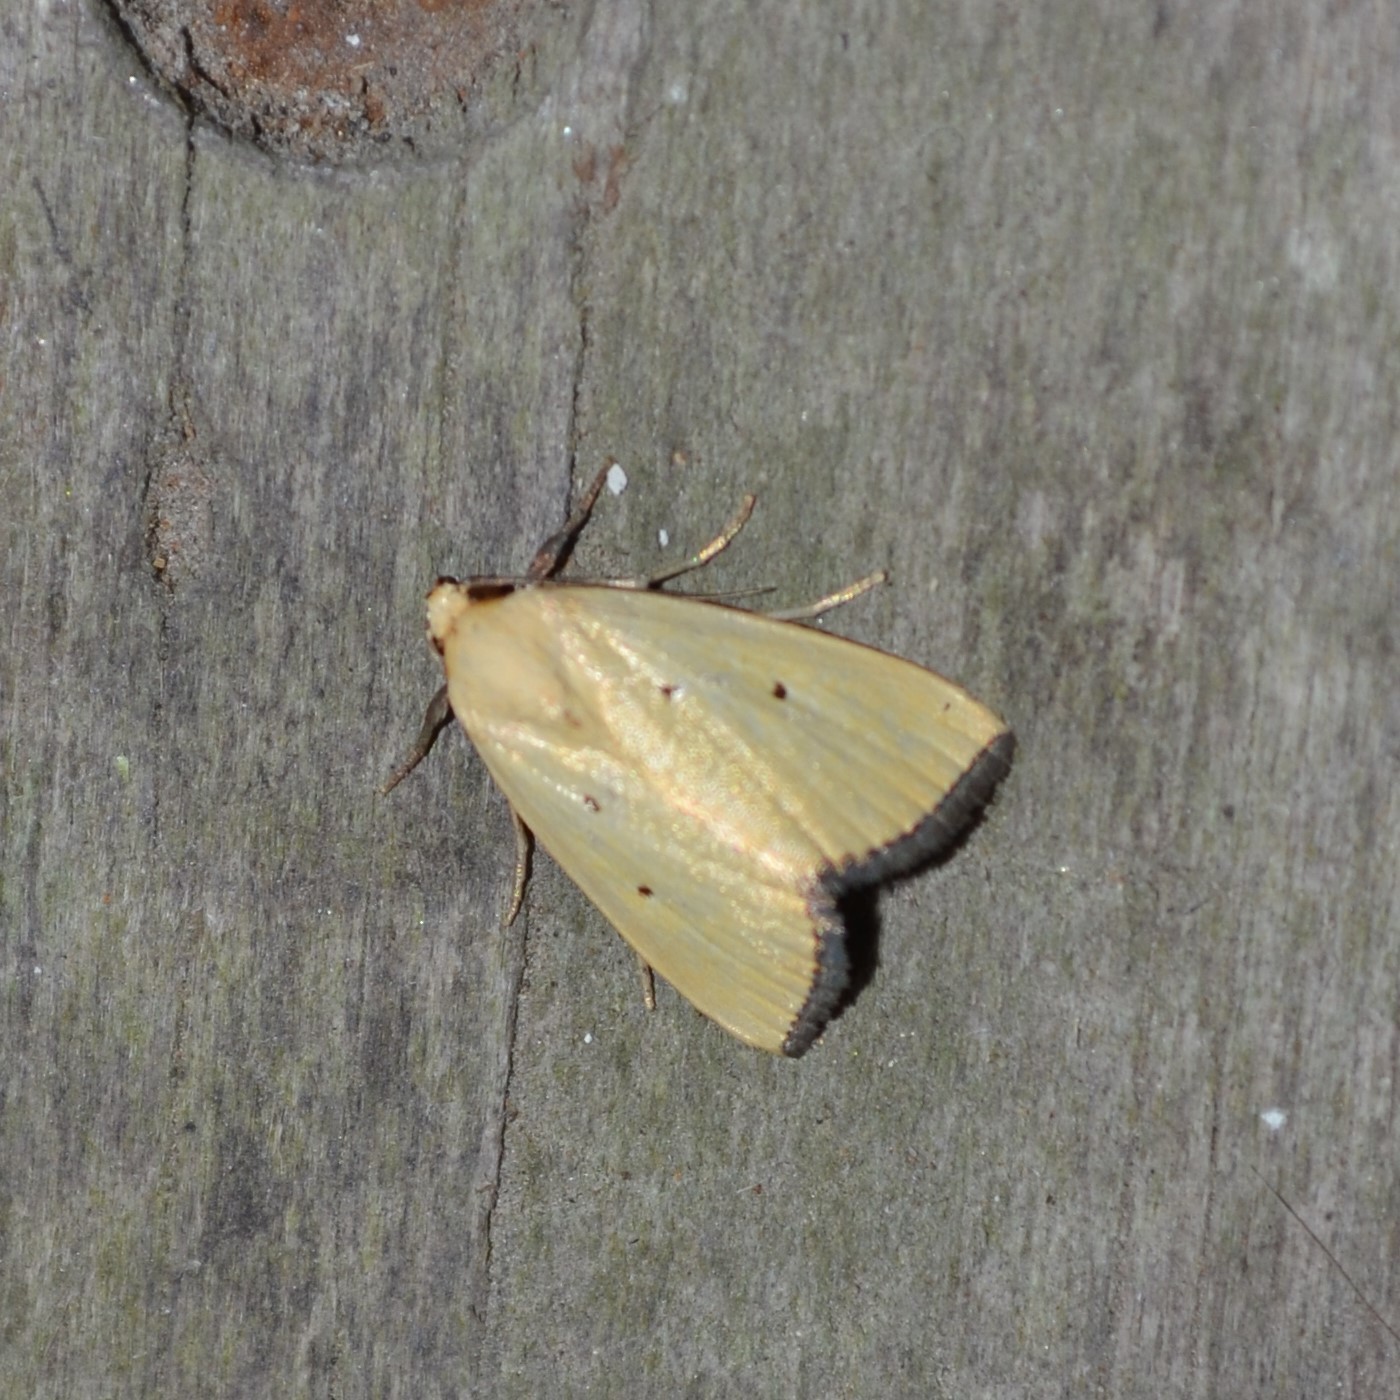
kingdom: Animalia
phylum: Arthropoda
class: Insecta
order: Lepidoptera
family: Noctuidae
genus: Marimatha
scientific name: Marimatha nigrofimbria
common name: Black-bordered lemon moth
